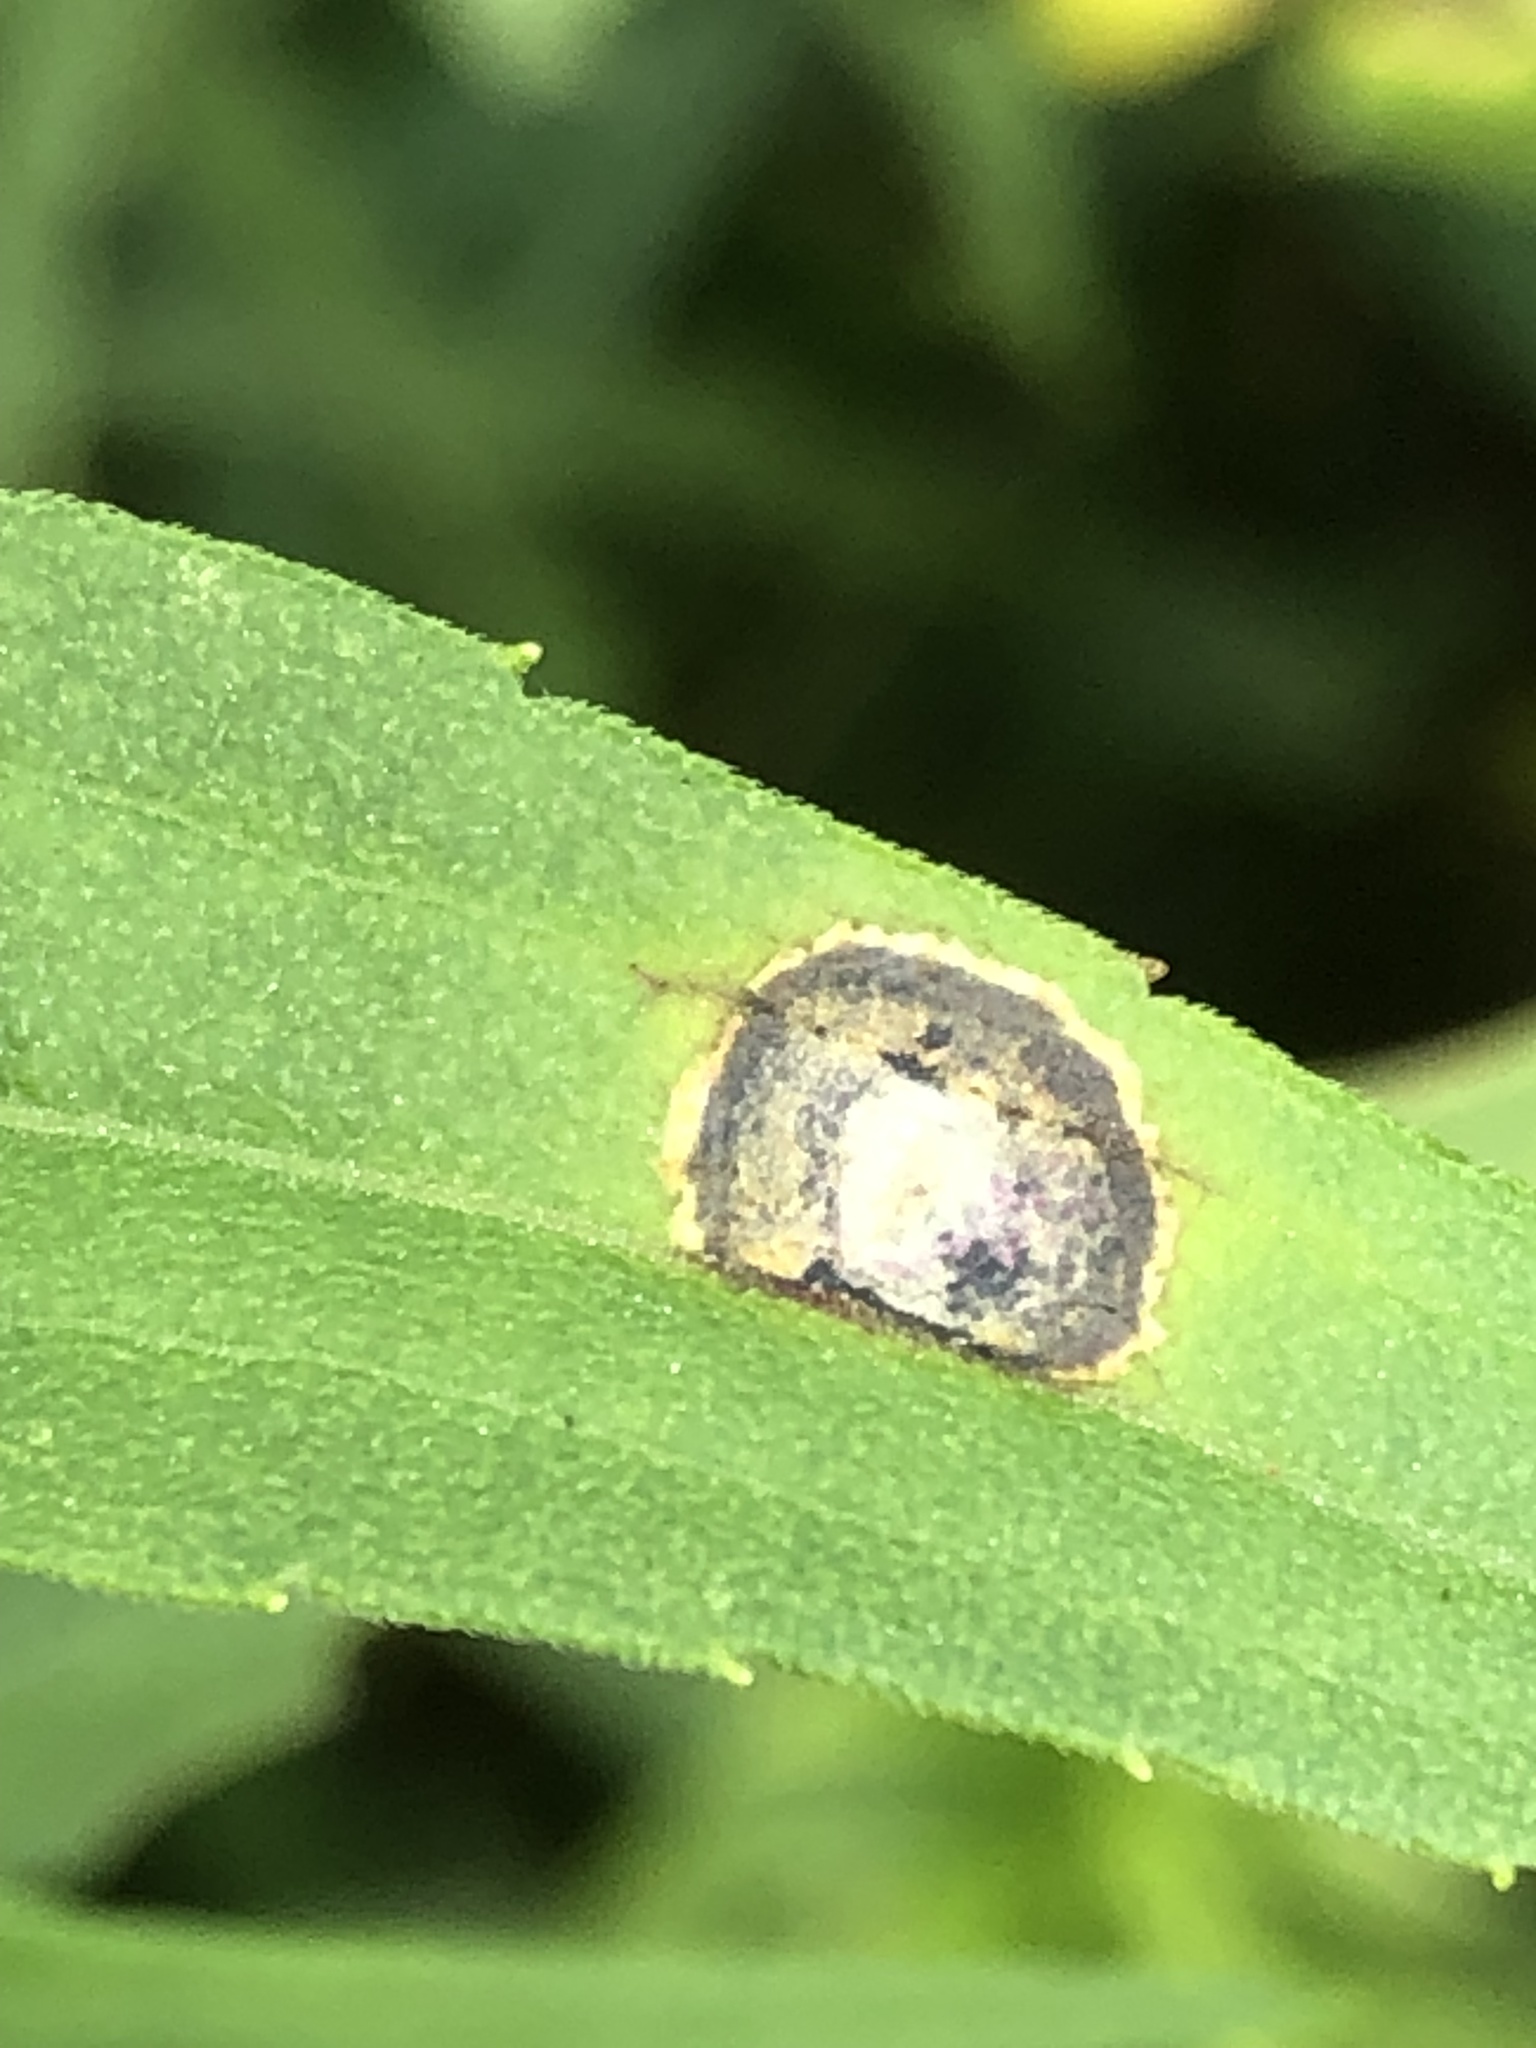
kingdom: Animalia
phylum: Arthropoda
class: Insecta
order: Diptera
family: Cecidomyiidae
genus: Asteromyia
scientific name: Asteromyia carbonifera
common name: Carbonifera goldenrod gall midge
